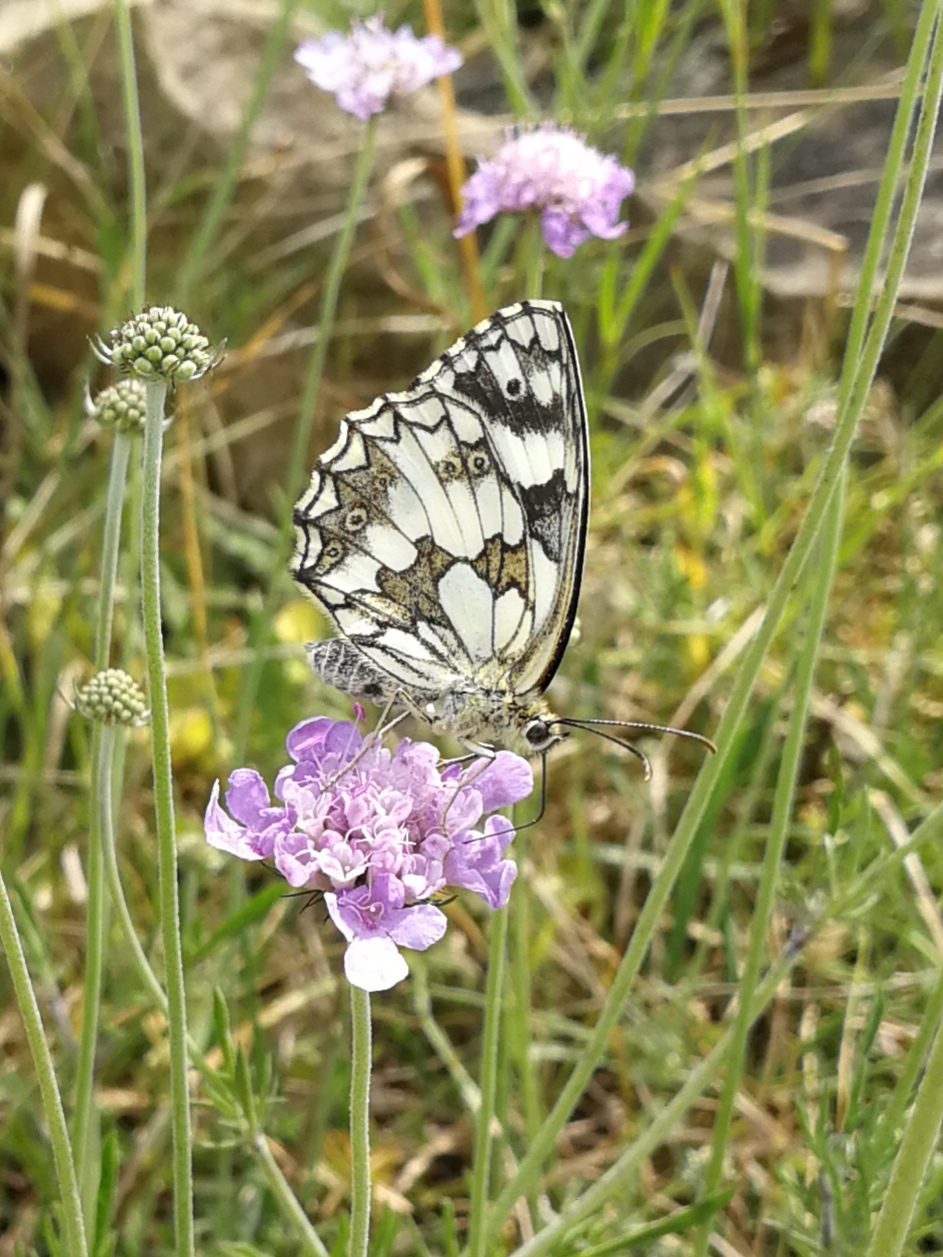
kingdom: Animalia
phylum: Arthropoda
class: Insecta
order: Lepidoptera
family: Nymphalidae
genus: Melanargia
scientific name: Melanargia galathea
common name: Marbled white
